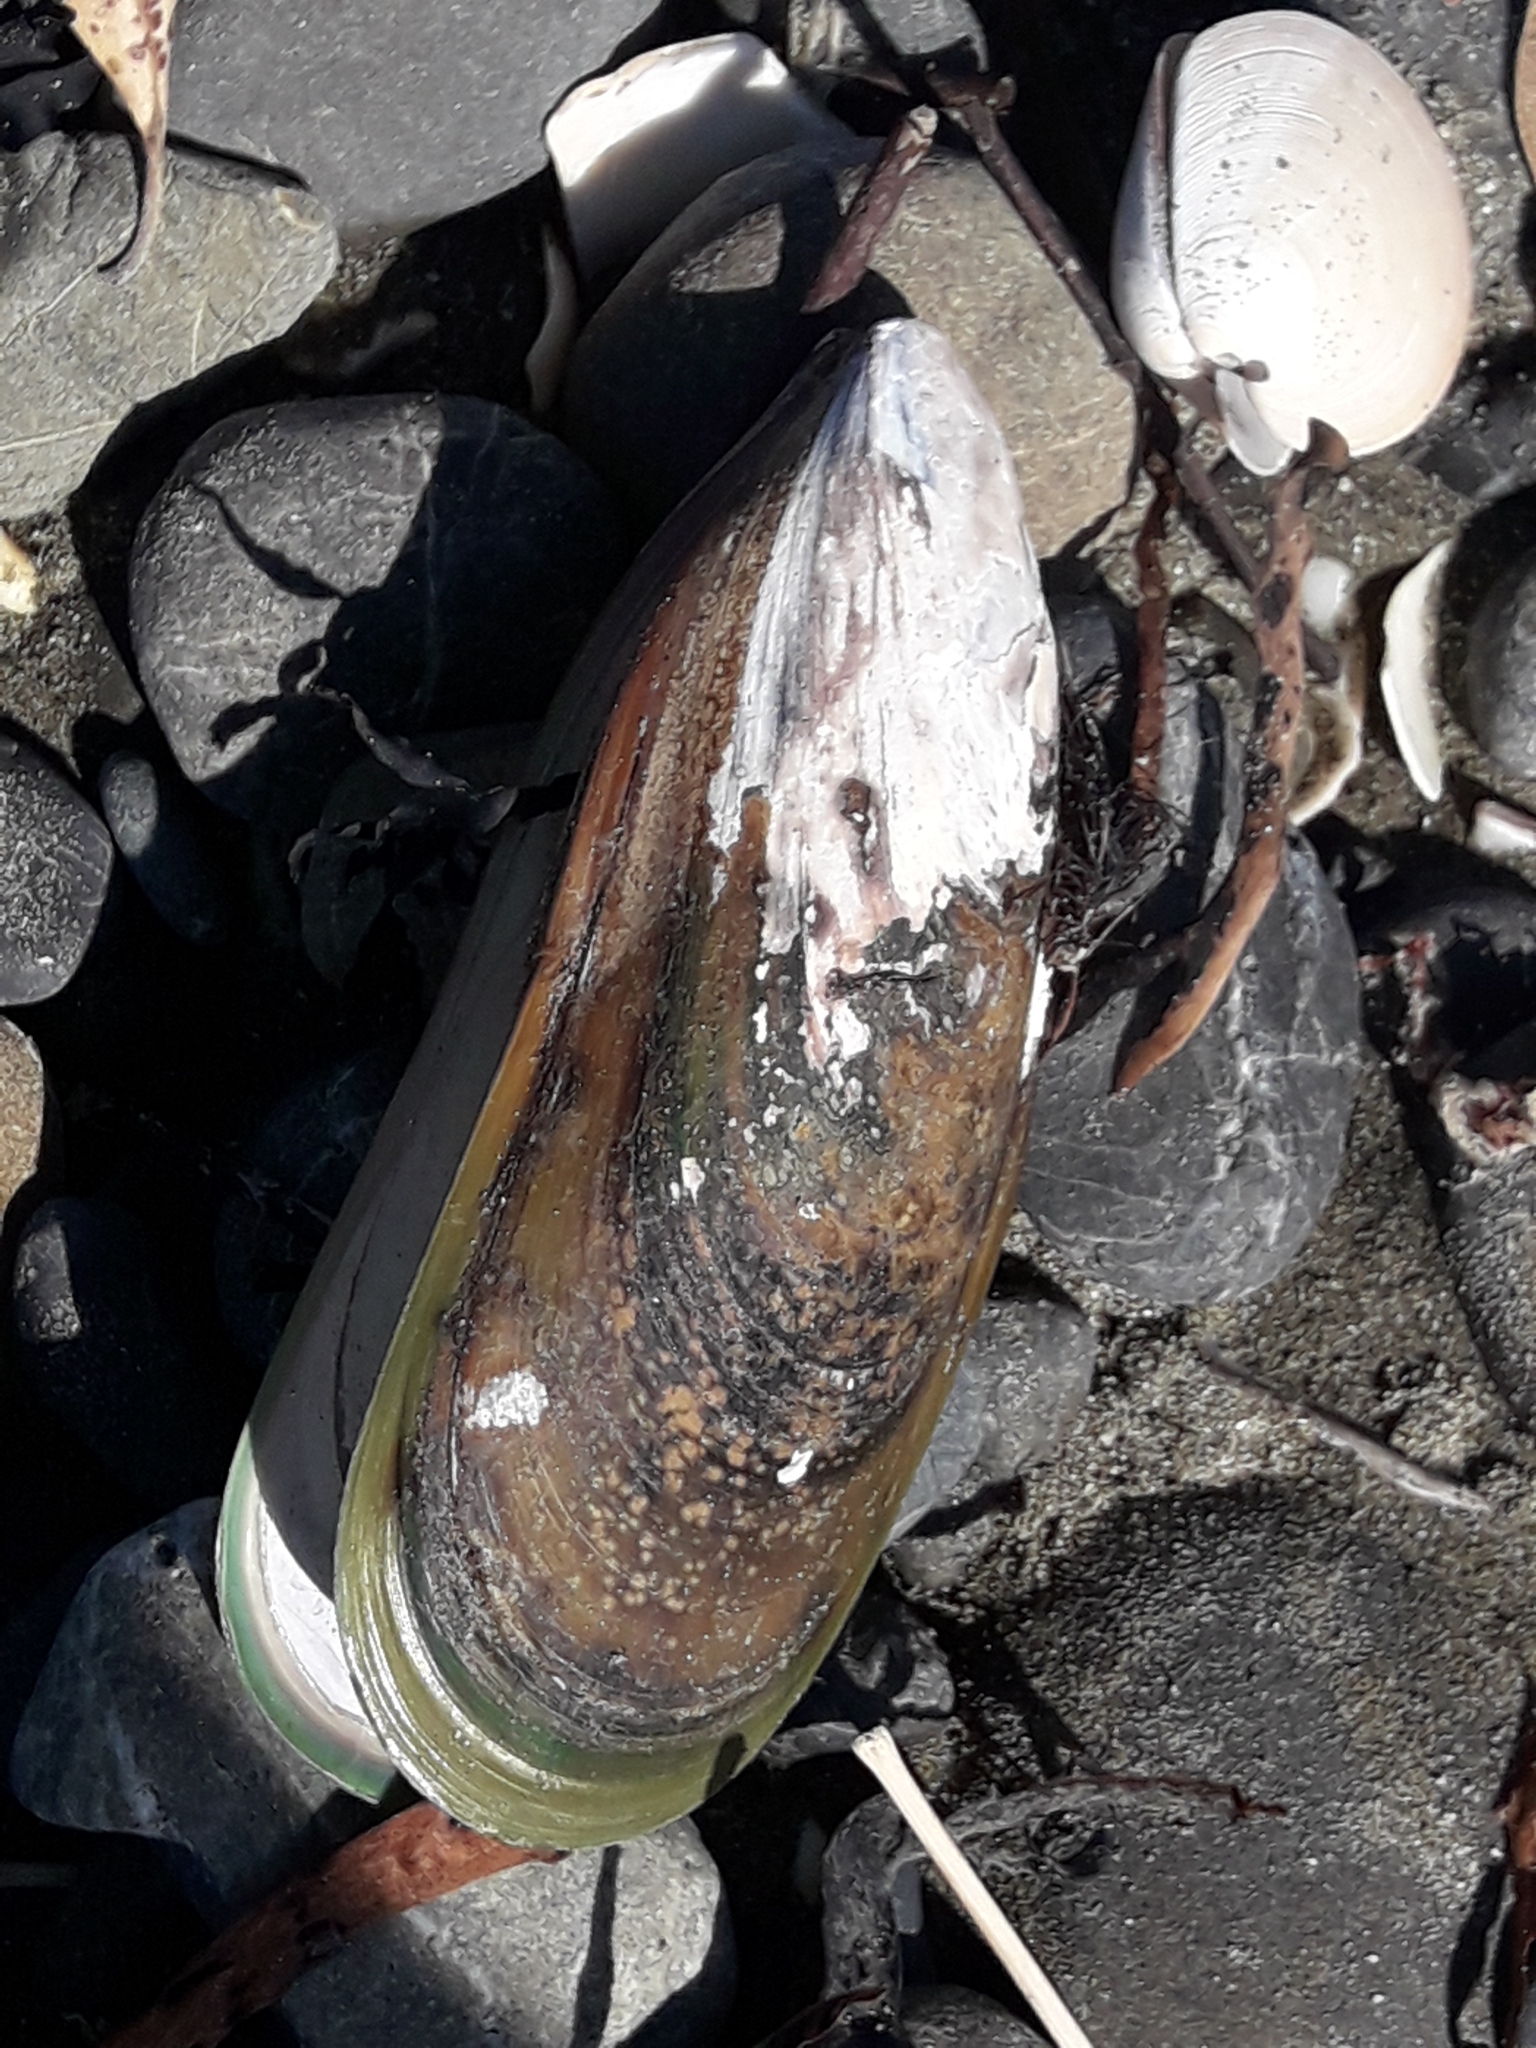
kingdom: Animalia
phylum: Mollusca
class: Bivalvia
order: Mytilida
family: Mytilidae
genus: Perna
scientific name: Perna canaliculus
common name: New zealand greenshelltm
